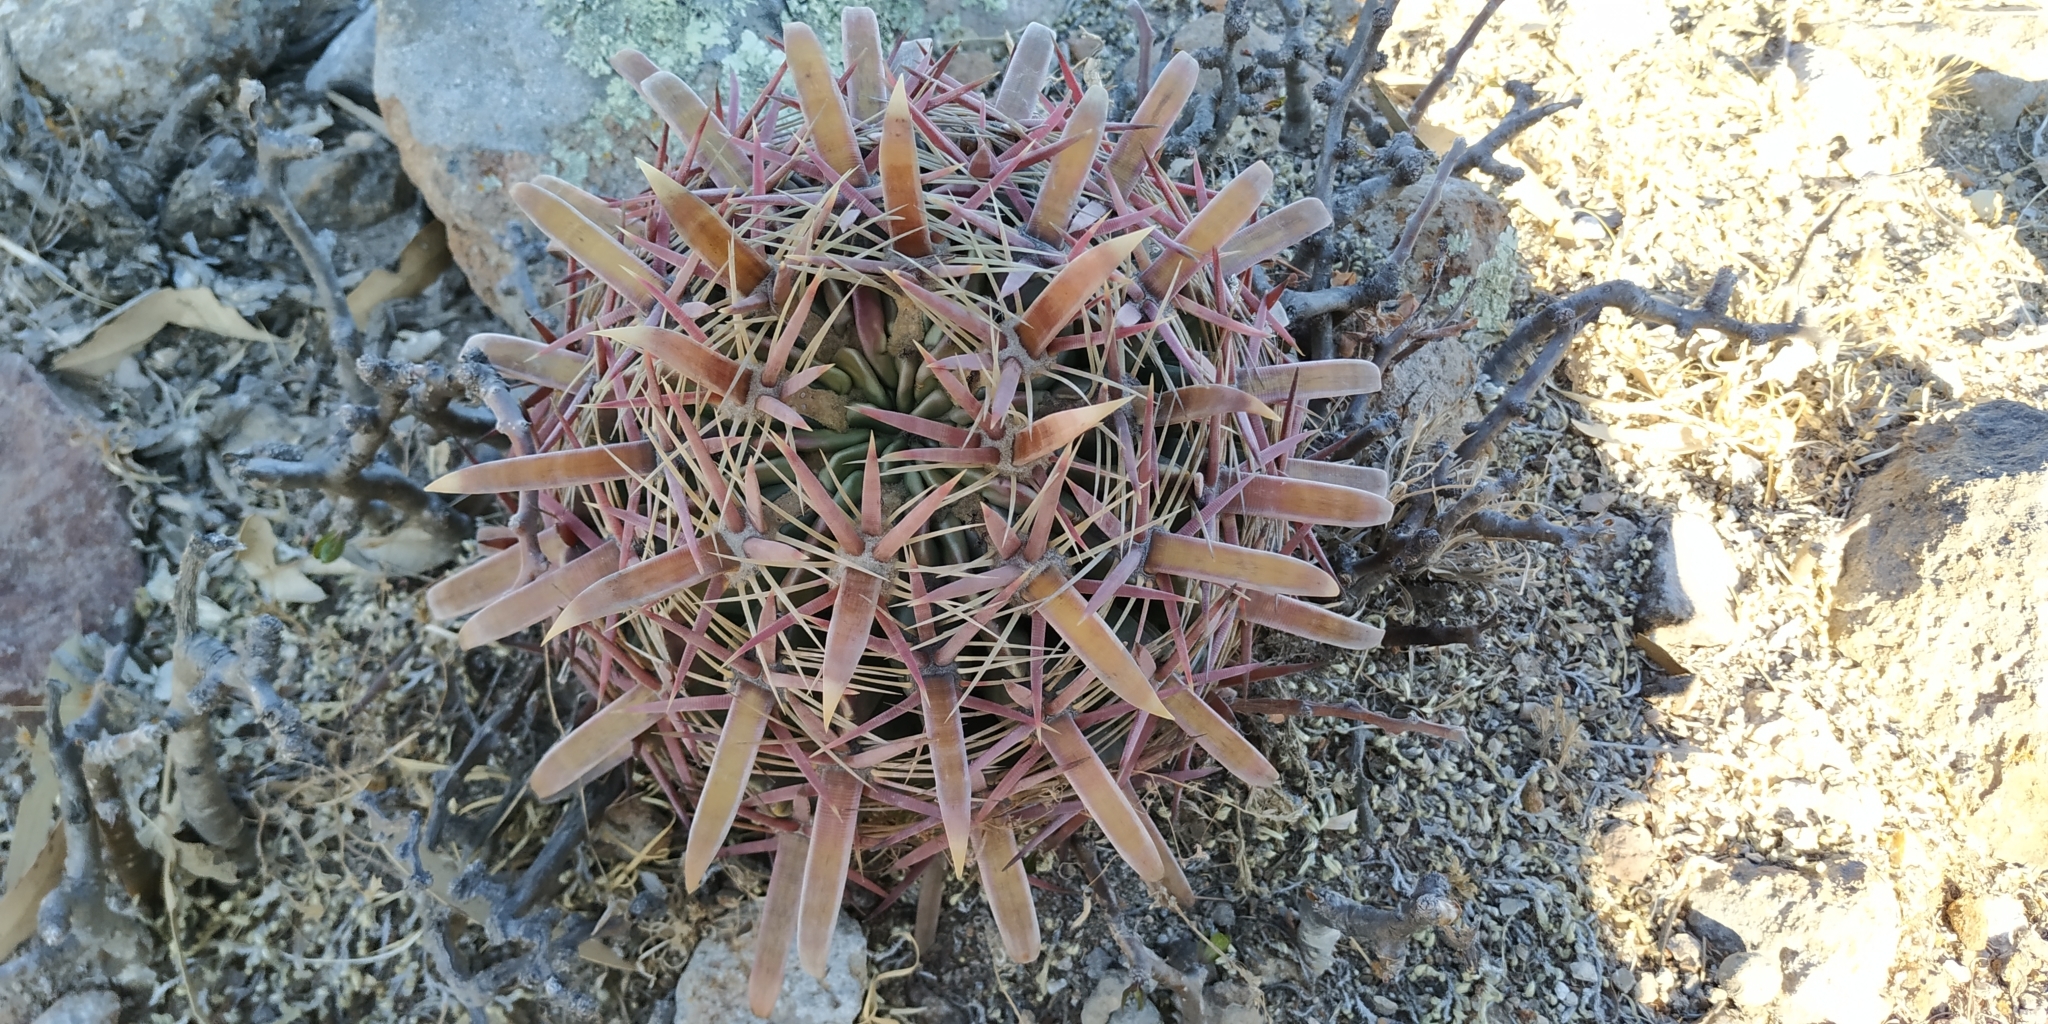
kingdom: Plantae
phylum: Tracheophyta
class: Magnoliopsida
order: Caryophyllales
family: Cactaceae
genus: Ferocactus
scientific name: Ferocactus latispinus
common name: Devil's-tongue cactus
